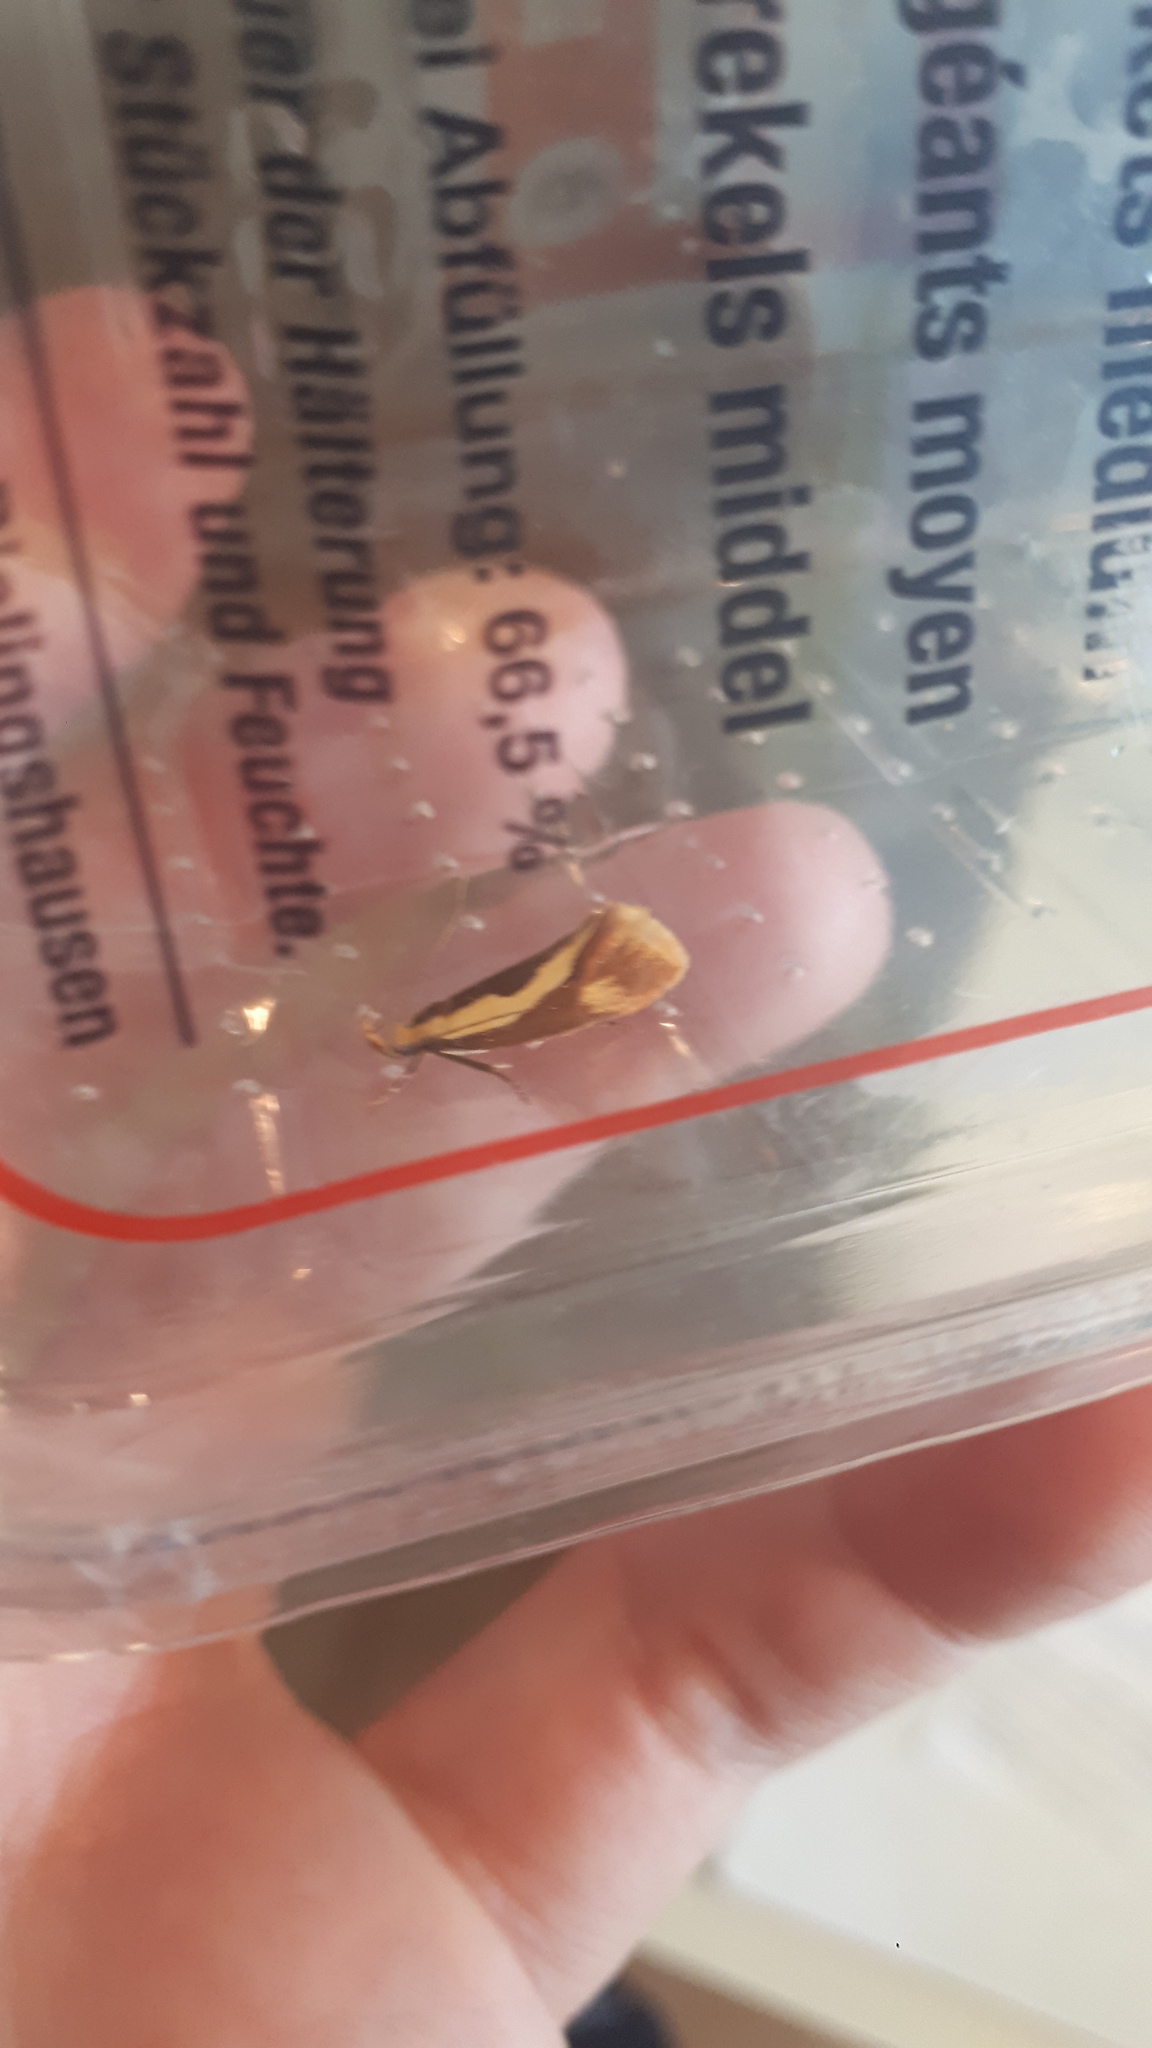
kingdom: Animalia
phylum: Arthropoda
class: Insecta
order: Lepidoptera
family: Oecophoridae
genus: Harpella
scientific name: Harpella forficella
